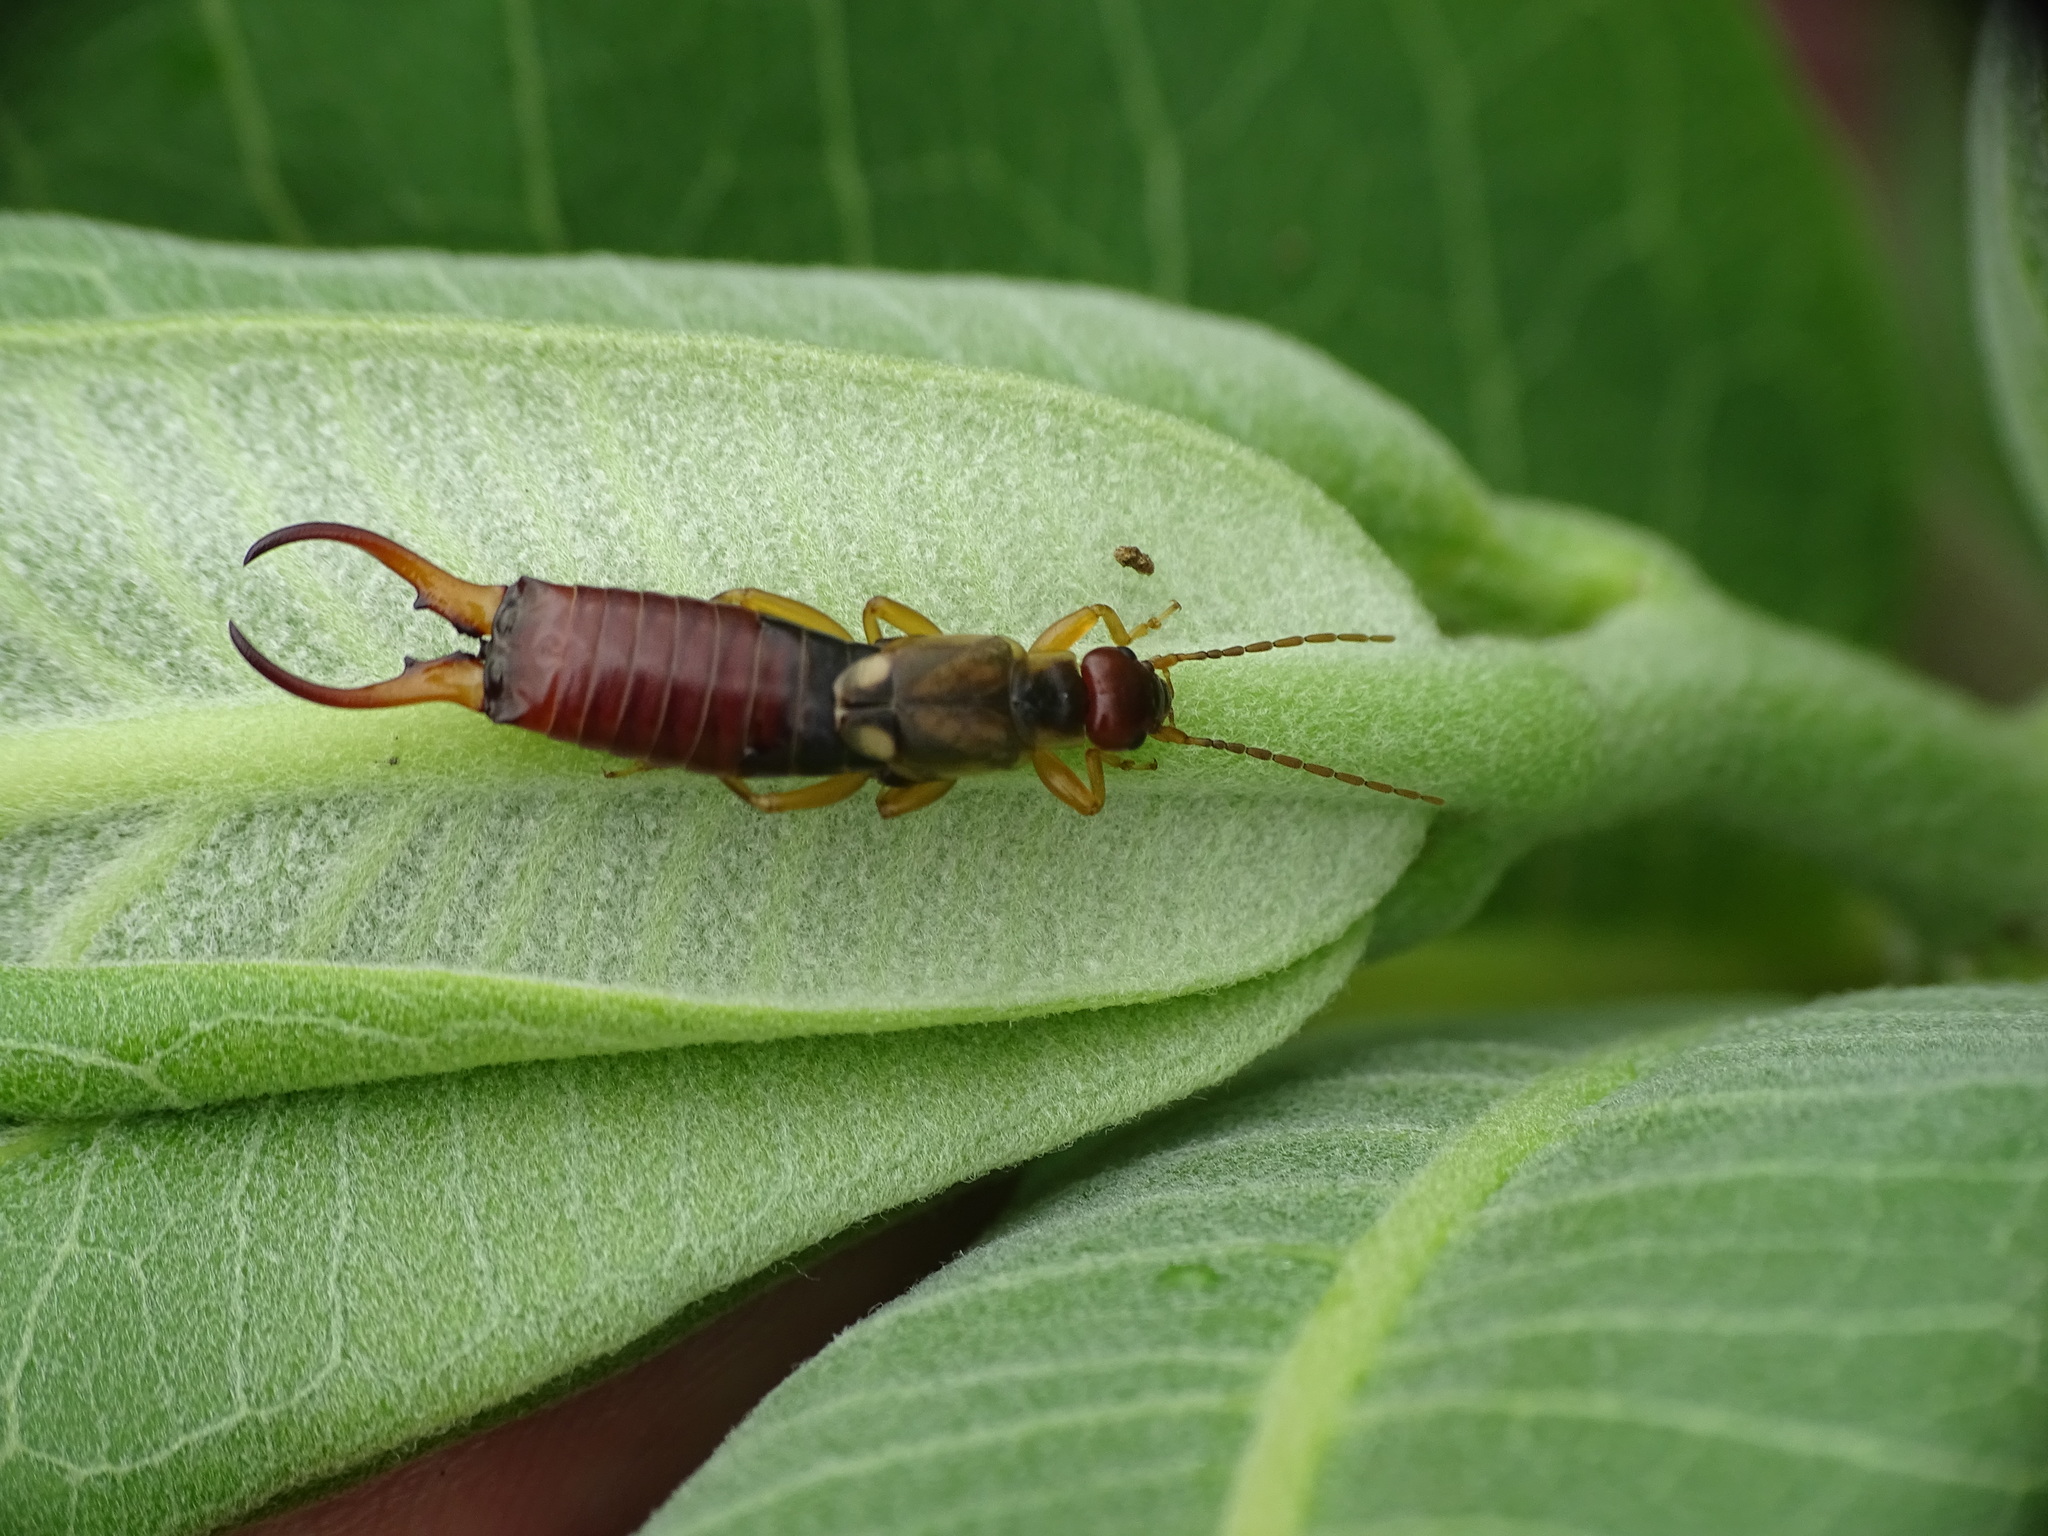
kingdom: Animalia
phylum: Arthropoda
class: Insecta
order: Dermaptera
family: Forficulidae
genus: Forficula
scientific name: Forficula
